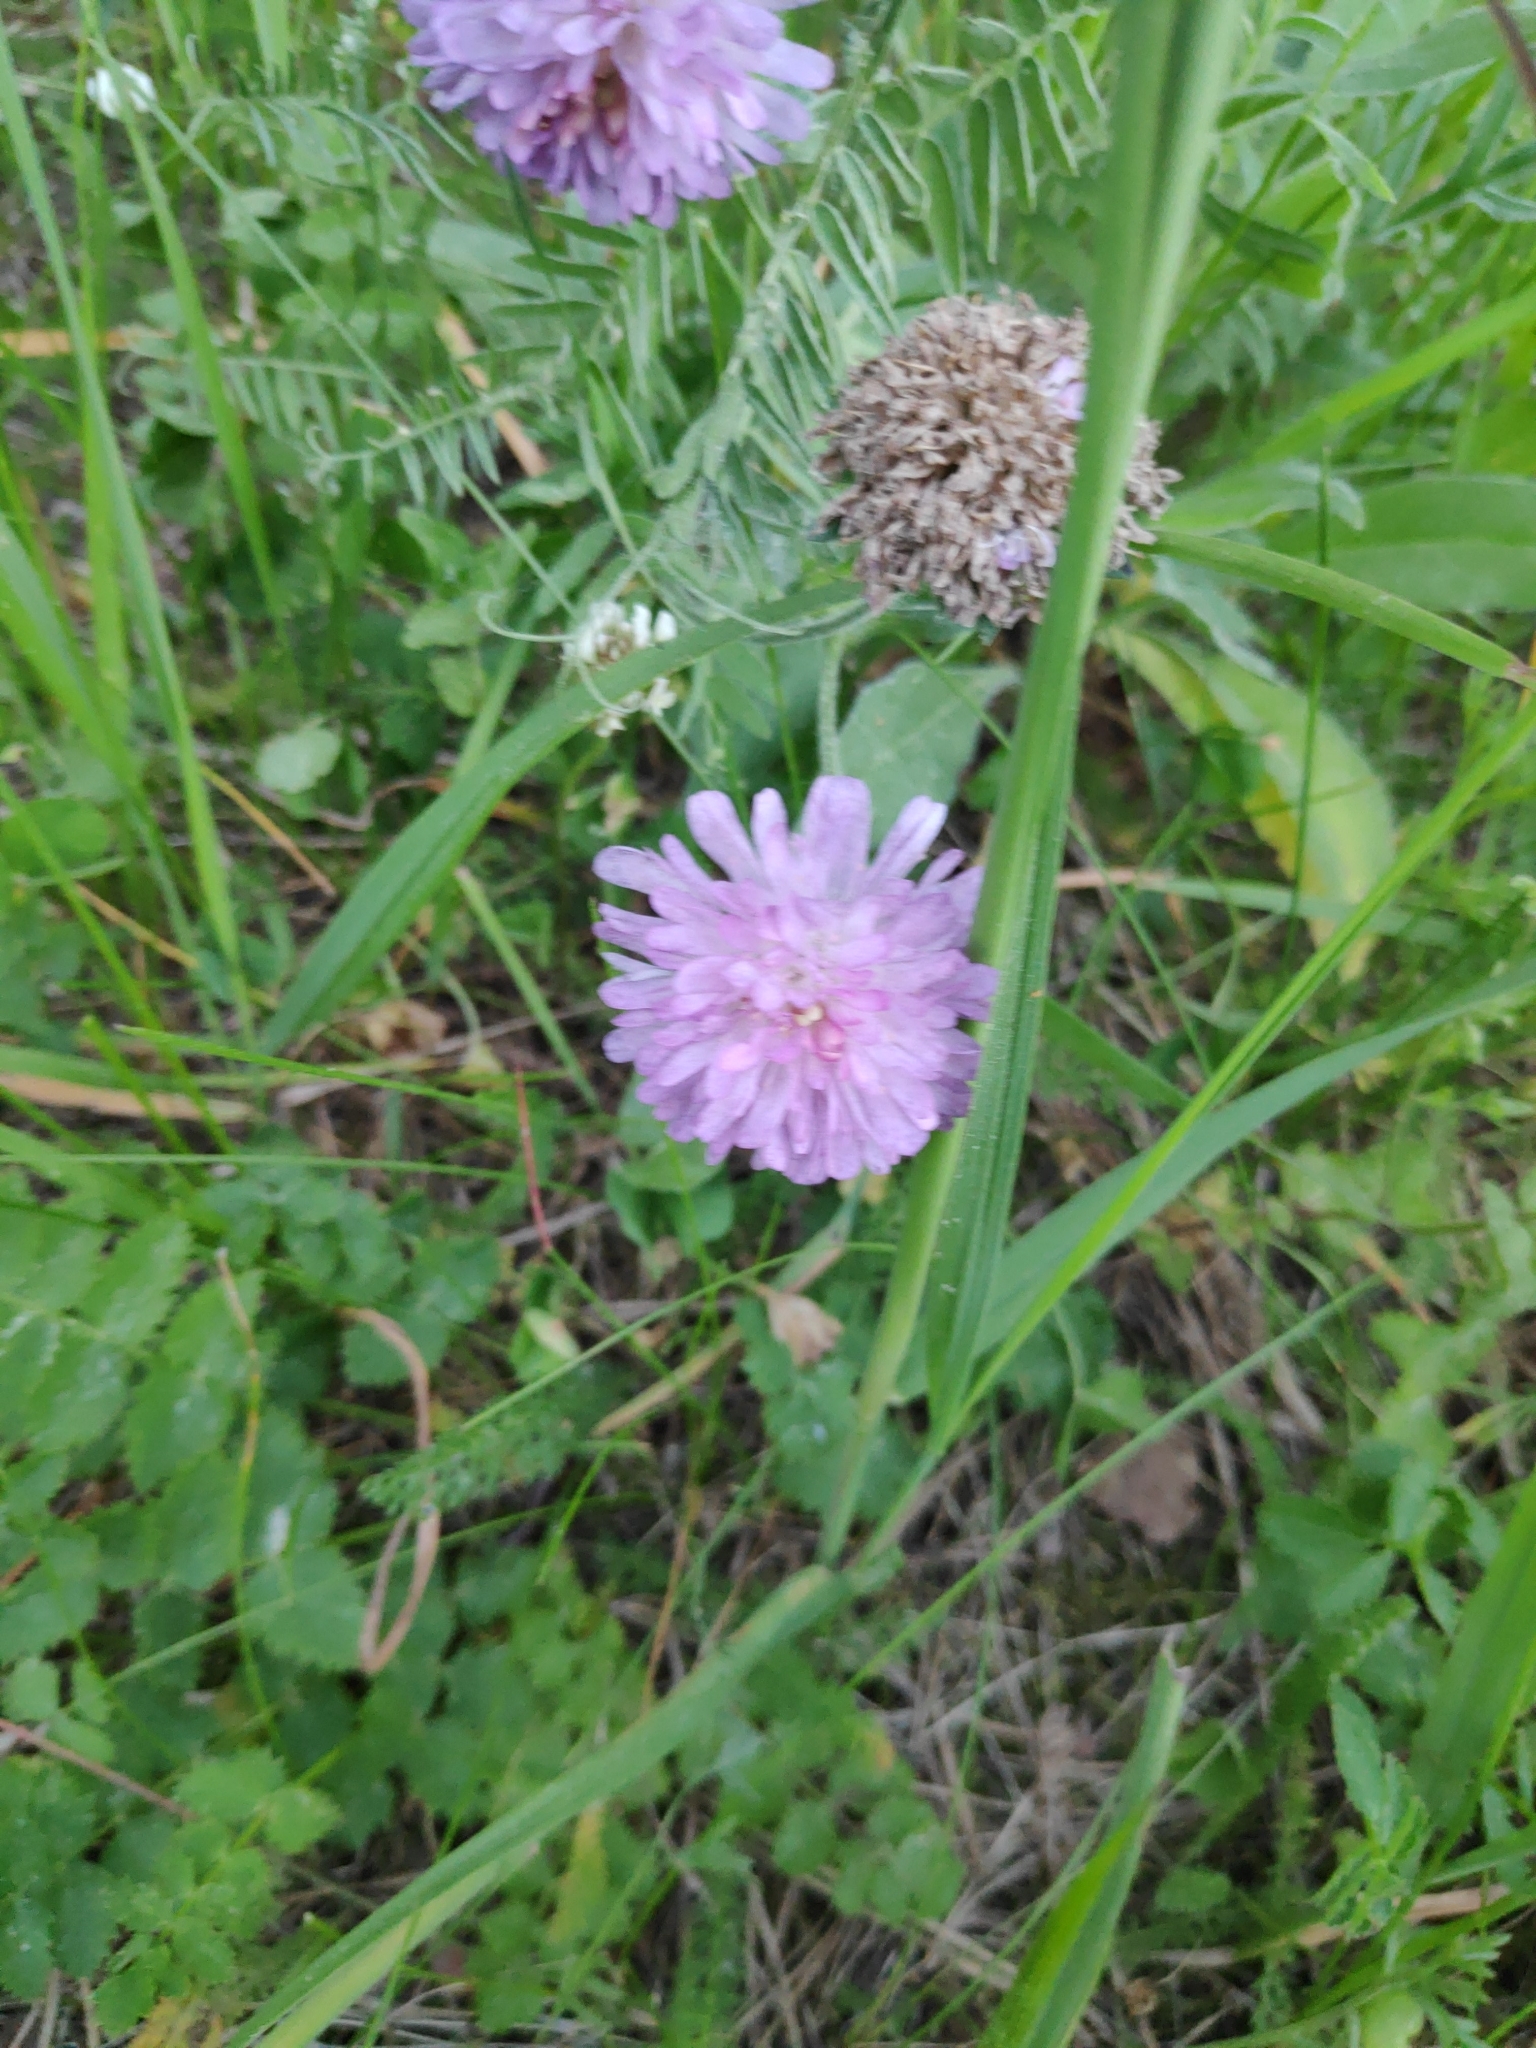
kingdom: Plantae
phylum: Tracheophyta
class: Magnoliopsida
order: Dipsacales
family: Caprifoliaceae
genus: Knautia
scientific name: Knautia arvensis
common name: Field scabiosa
